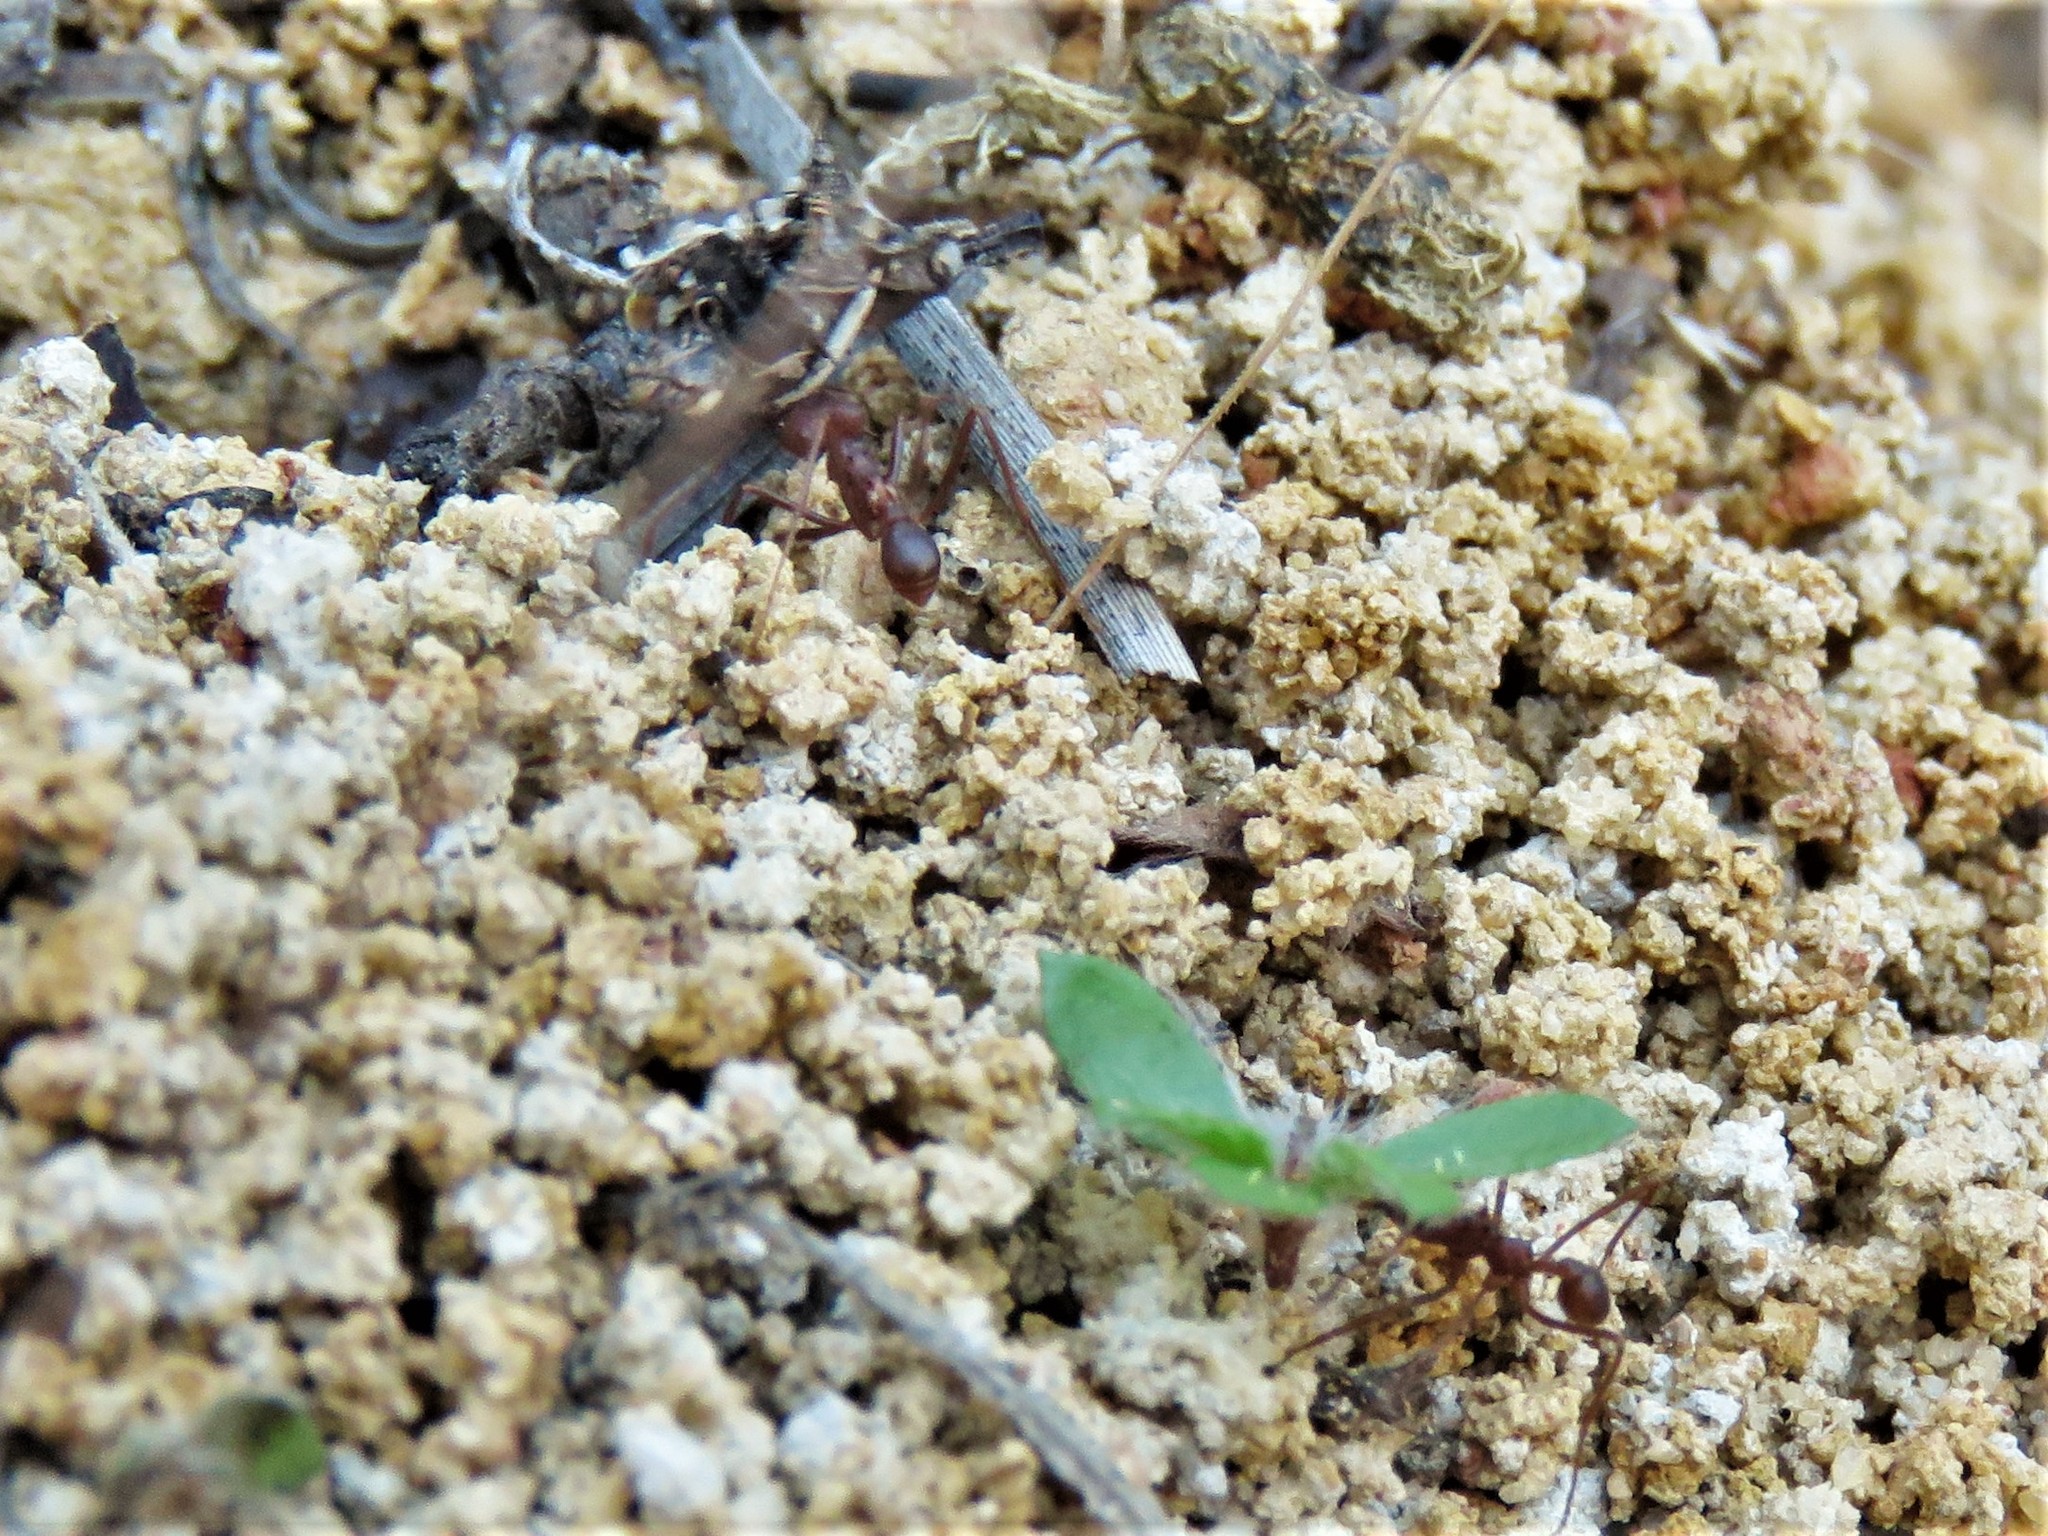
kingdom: Animalia
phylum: Arthropoda
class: Insecta
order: Hymenoptera
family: Formicidae
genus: Atta
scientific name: Atta texana
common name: Texas leafcutting ant
